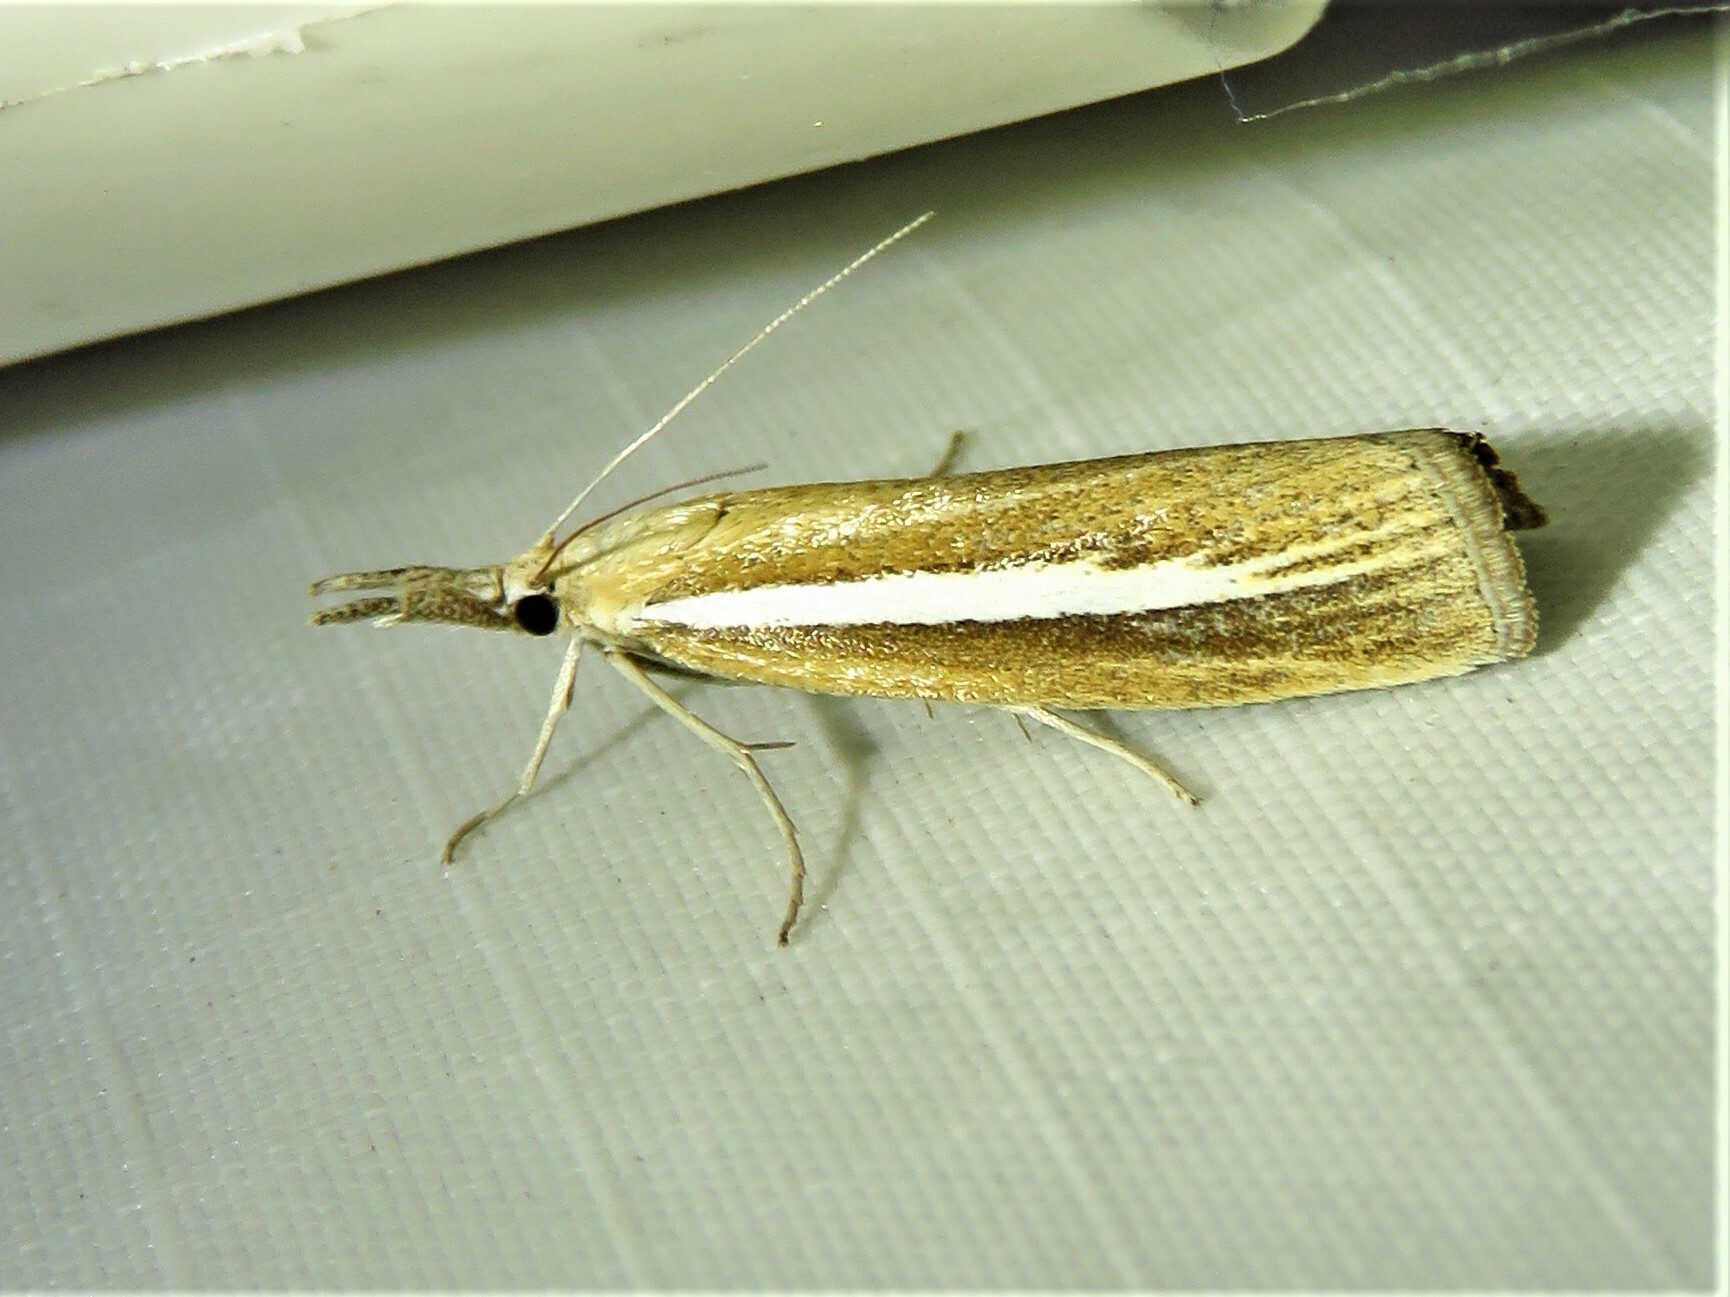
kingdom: Animalia
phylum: Arthropoda
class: Insecta
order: Lepidoptera
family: Crambidae
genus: Agriphila
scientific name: Agriphila selasella
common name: Pale-streak grass-veneer
